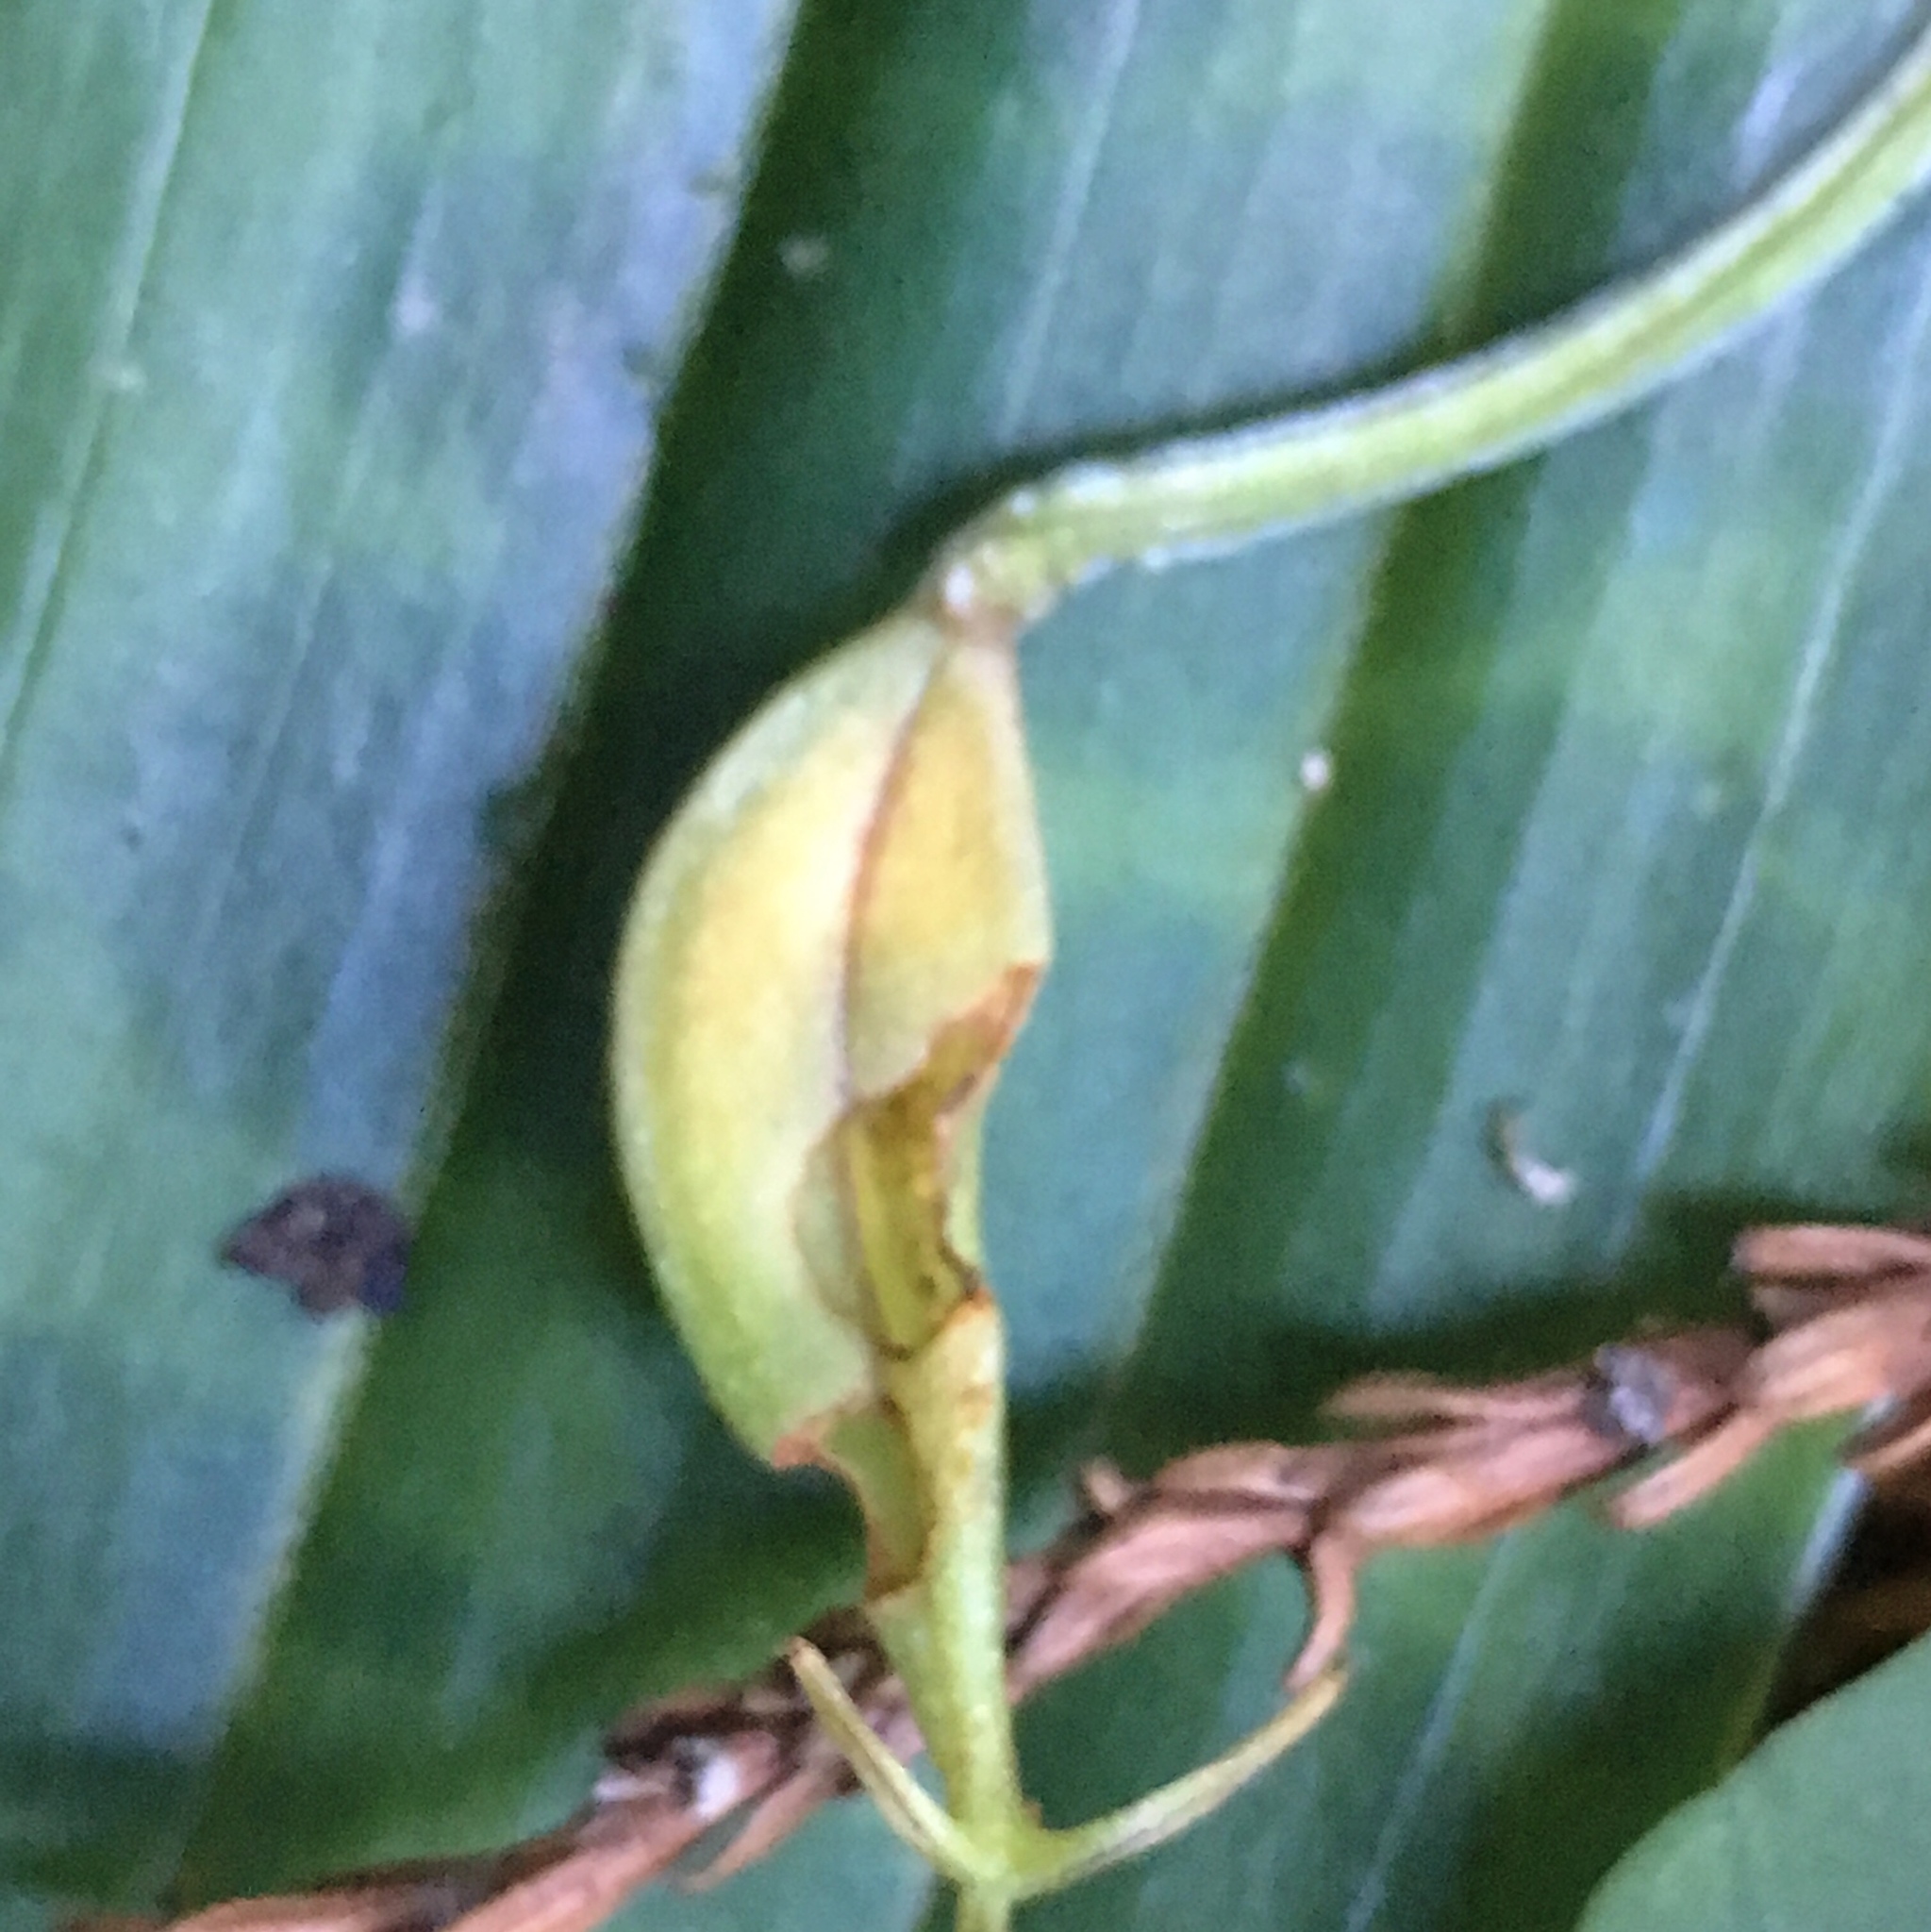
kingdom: Plantae
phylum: Tracheophyta
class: Liliopsida
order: Liliales
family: Liliaceae
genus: Scoliopus
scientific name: Scoliopus bigelovii
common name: Foetid adder's-tongue
